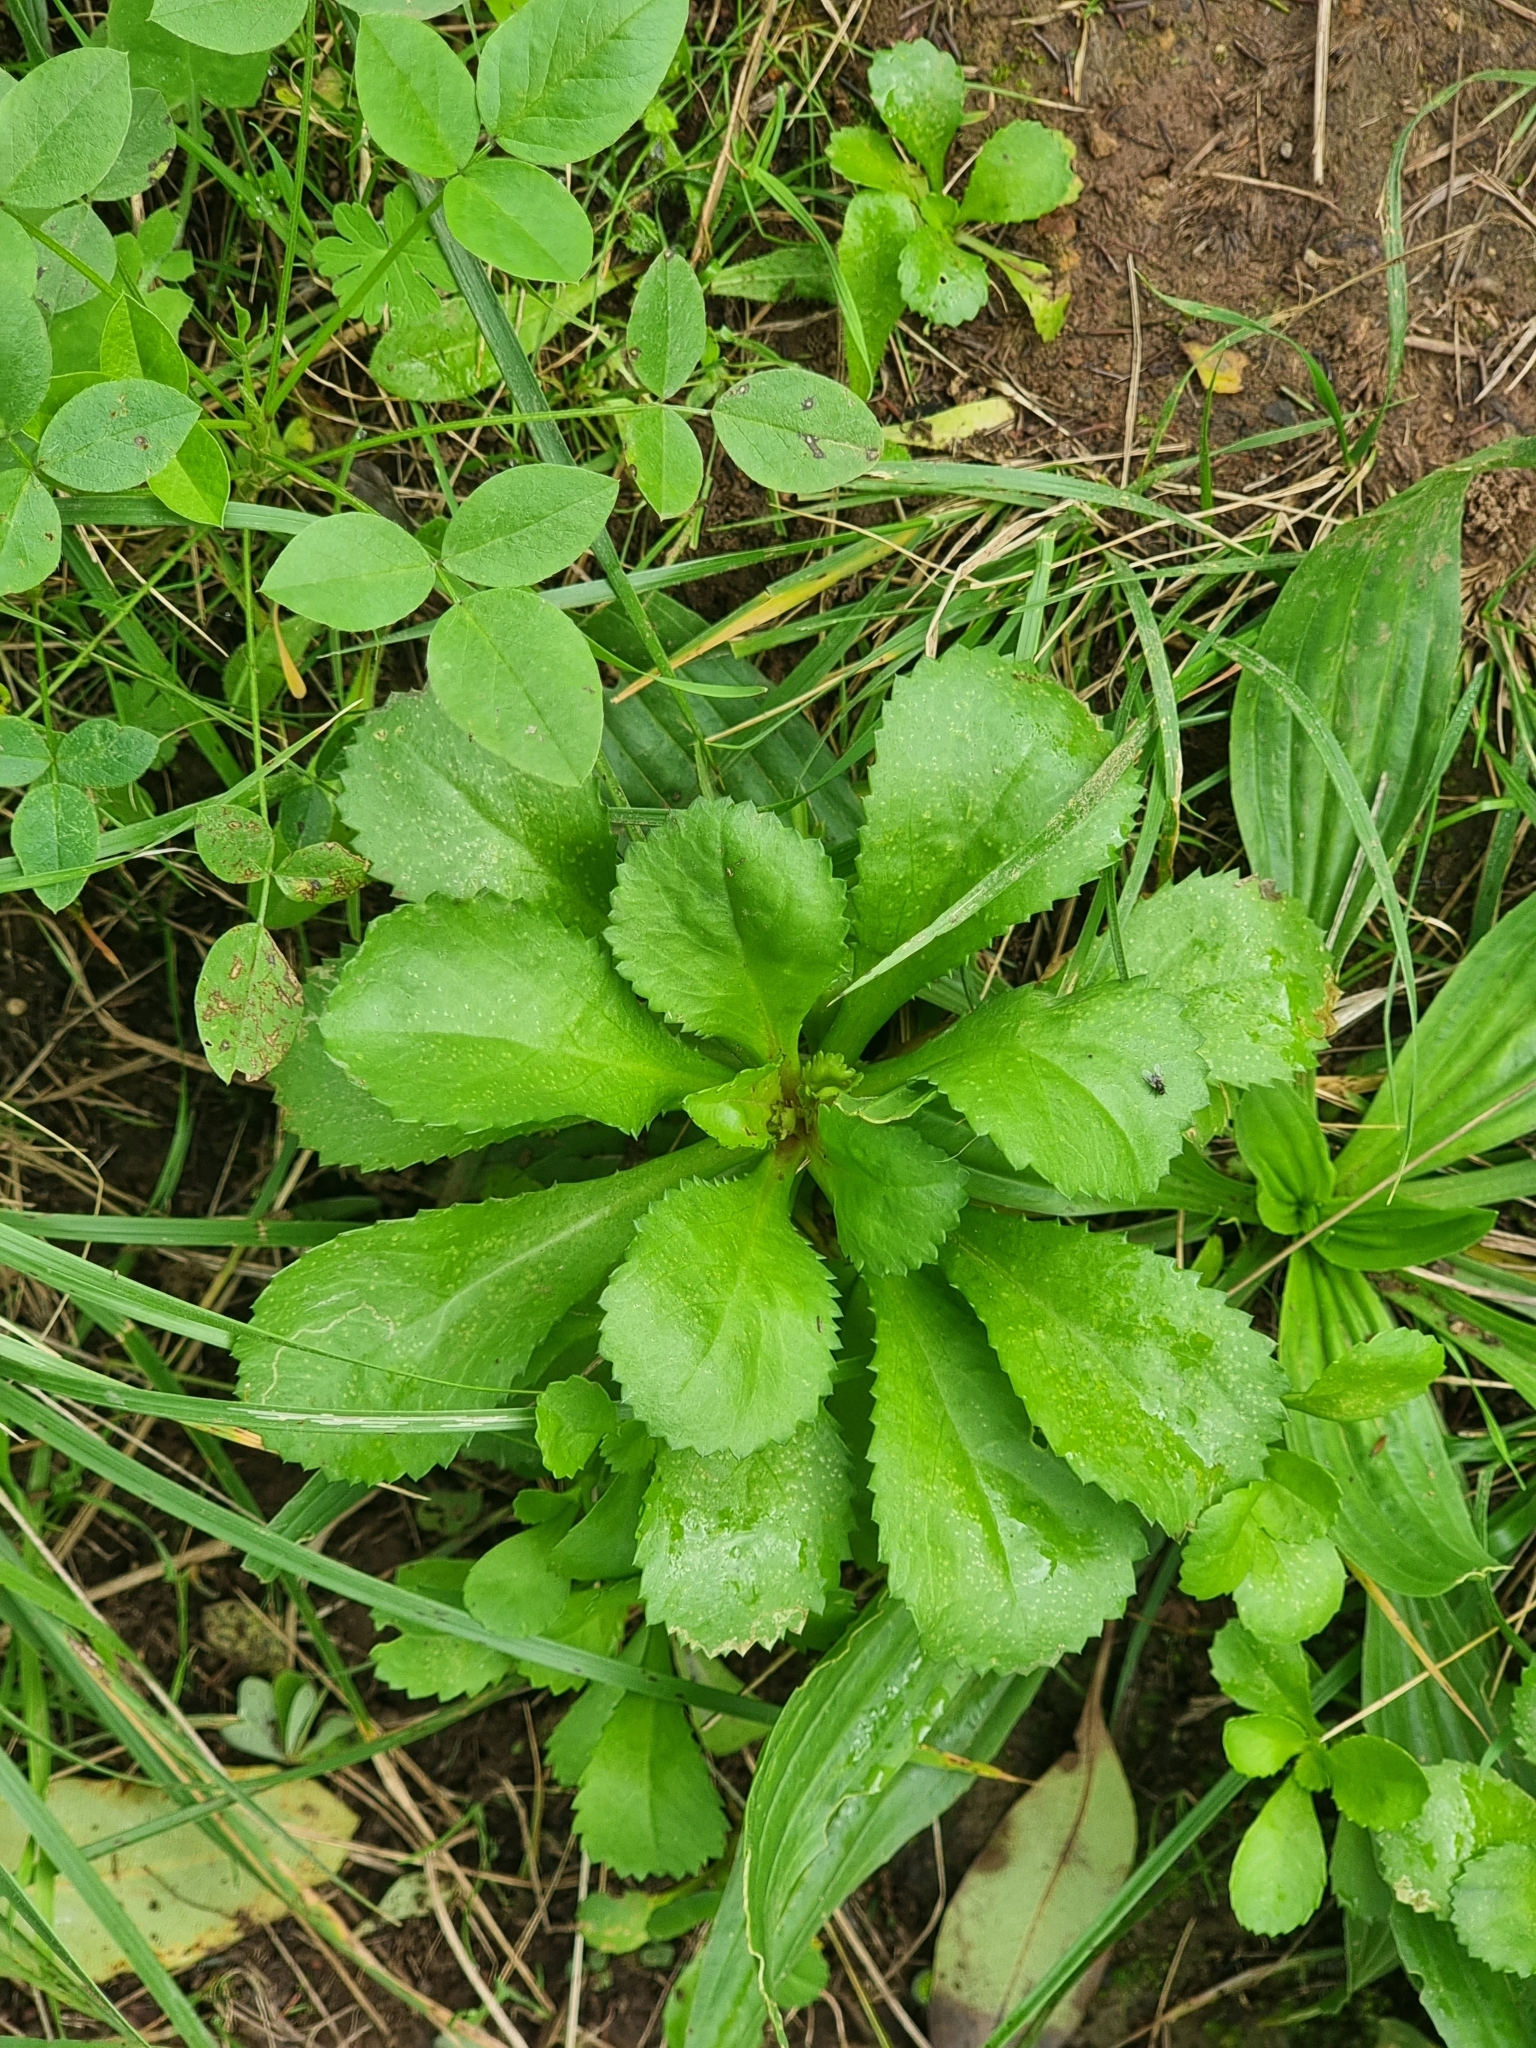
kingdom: Plantae
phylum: Tracheophyta
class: Magnoliopsida
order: Asterales
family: Asteraceae
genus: Coleostephus
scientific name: Coleostephus myconis
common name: Mediterranean marigold
